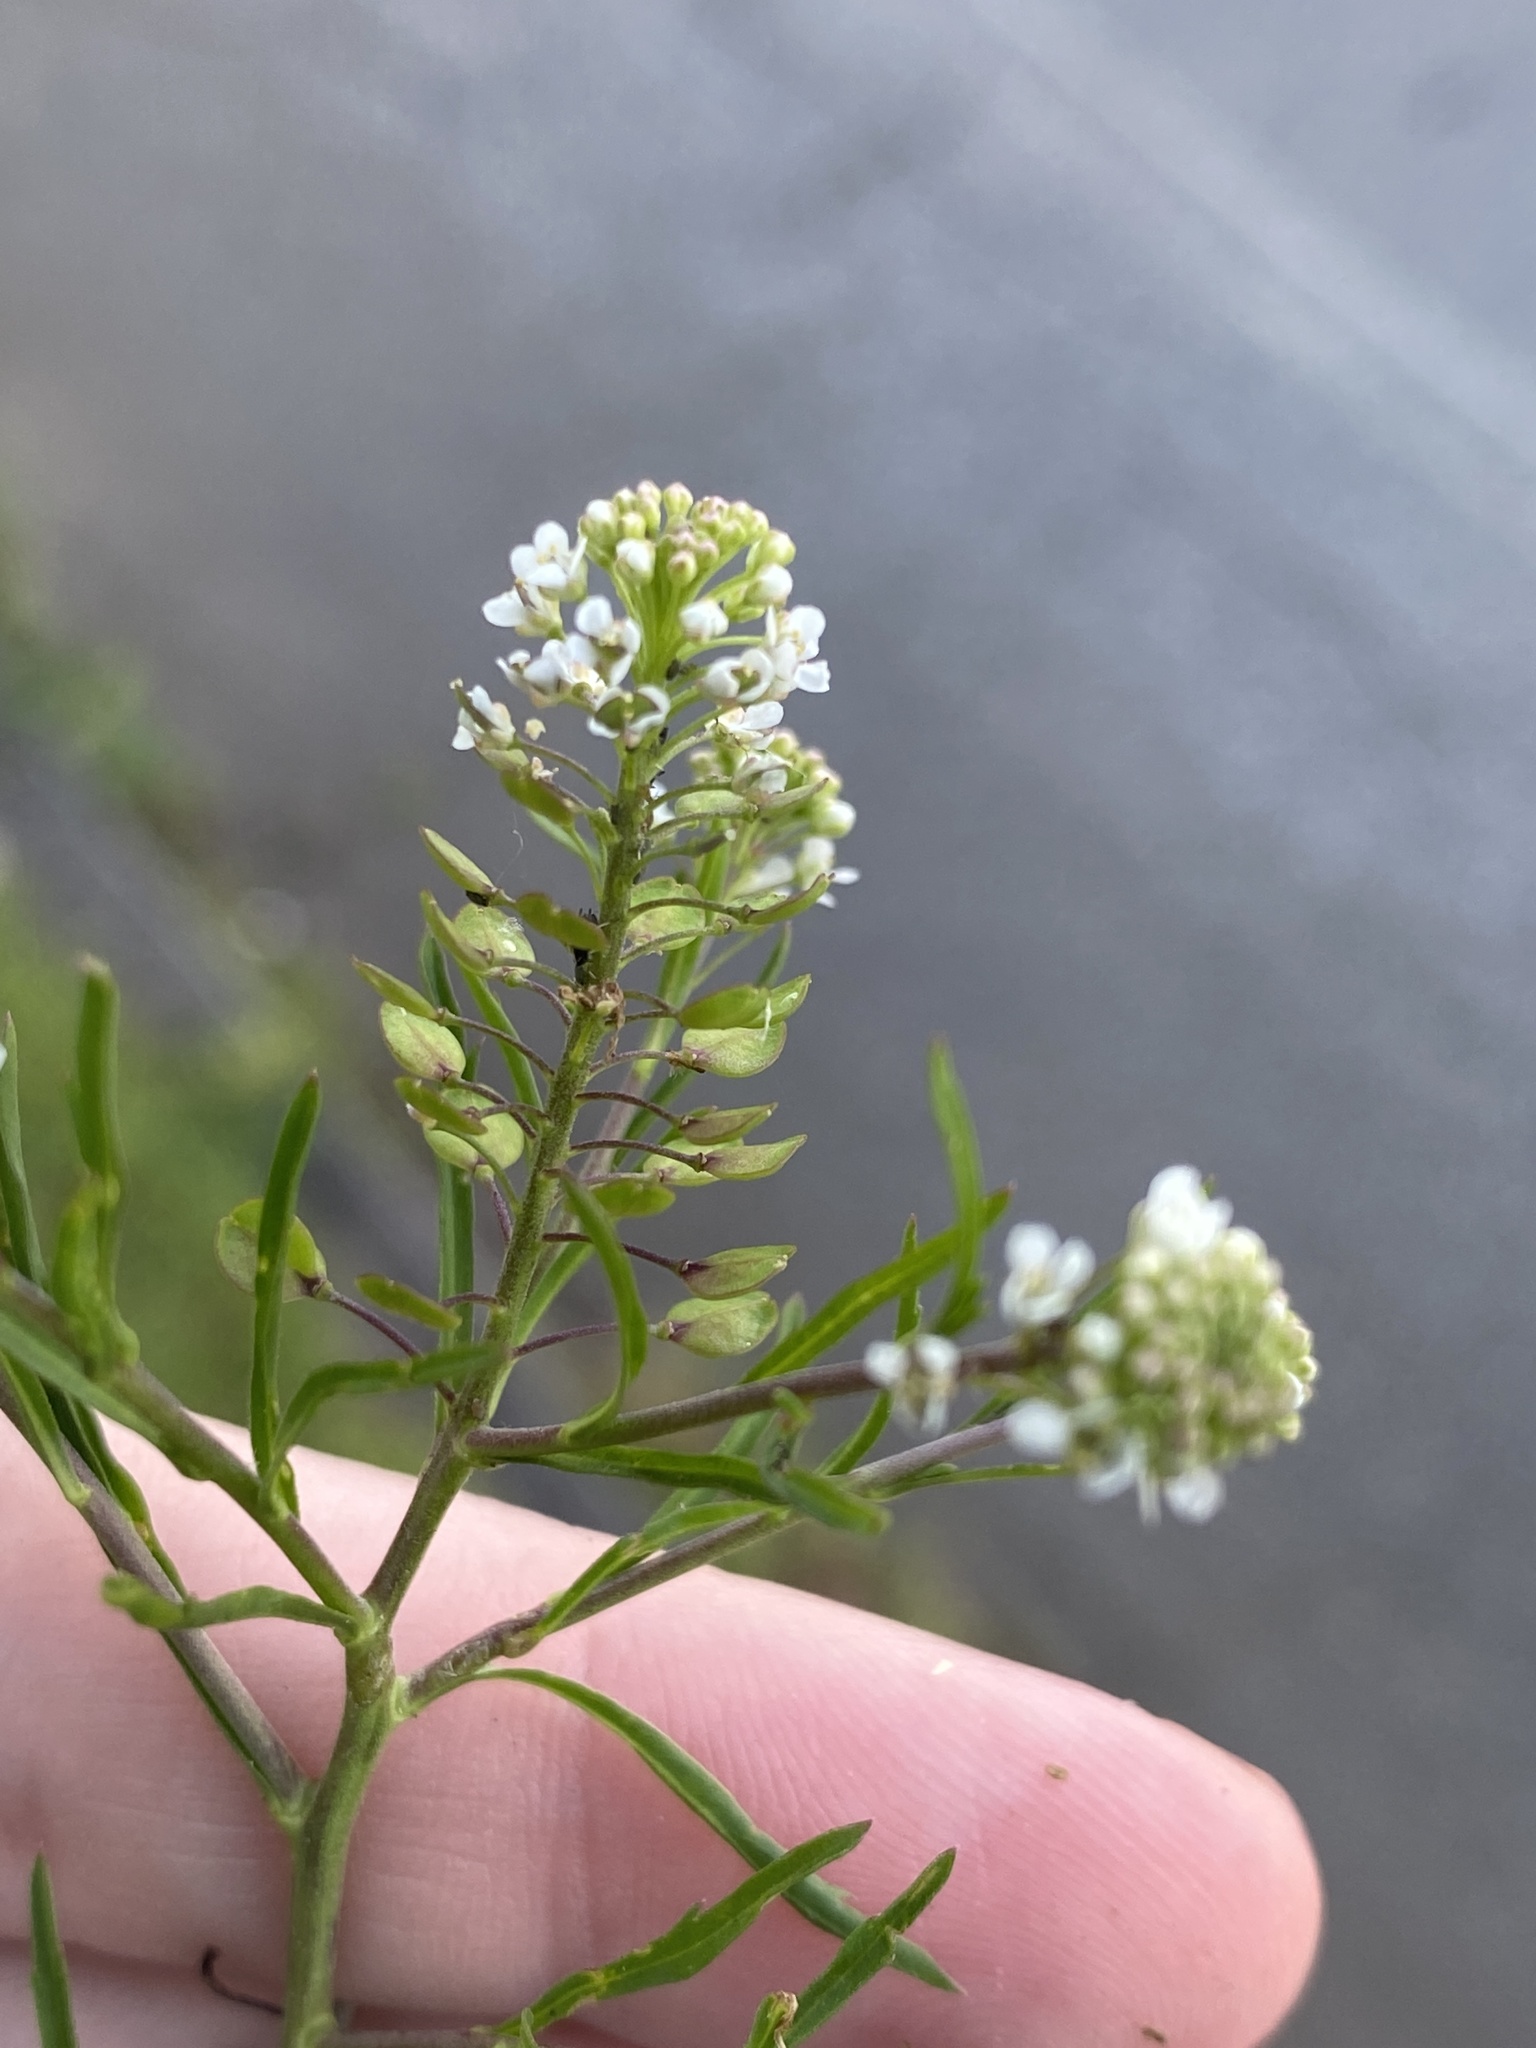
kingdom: Plantae
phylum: Tracheophyta
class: Magnoliopsida
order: Brassicales
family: Brassicaceae
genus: Lepidium
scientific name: Lepidium virginicum
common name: Least pepperwort
